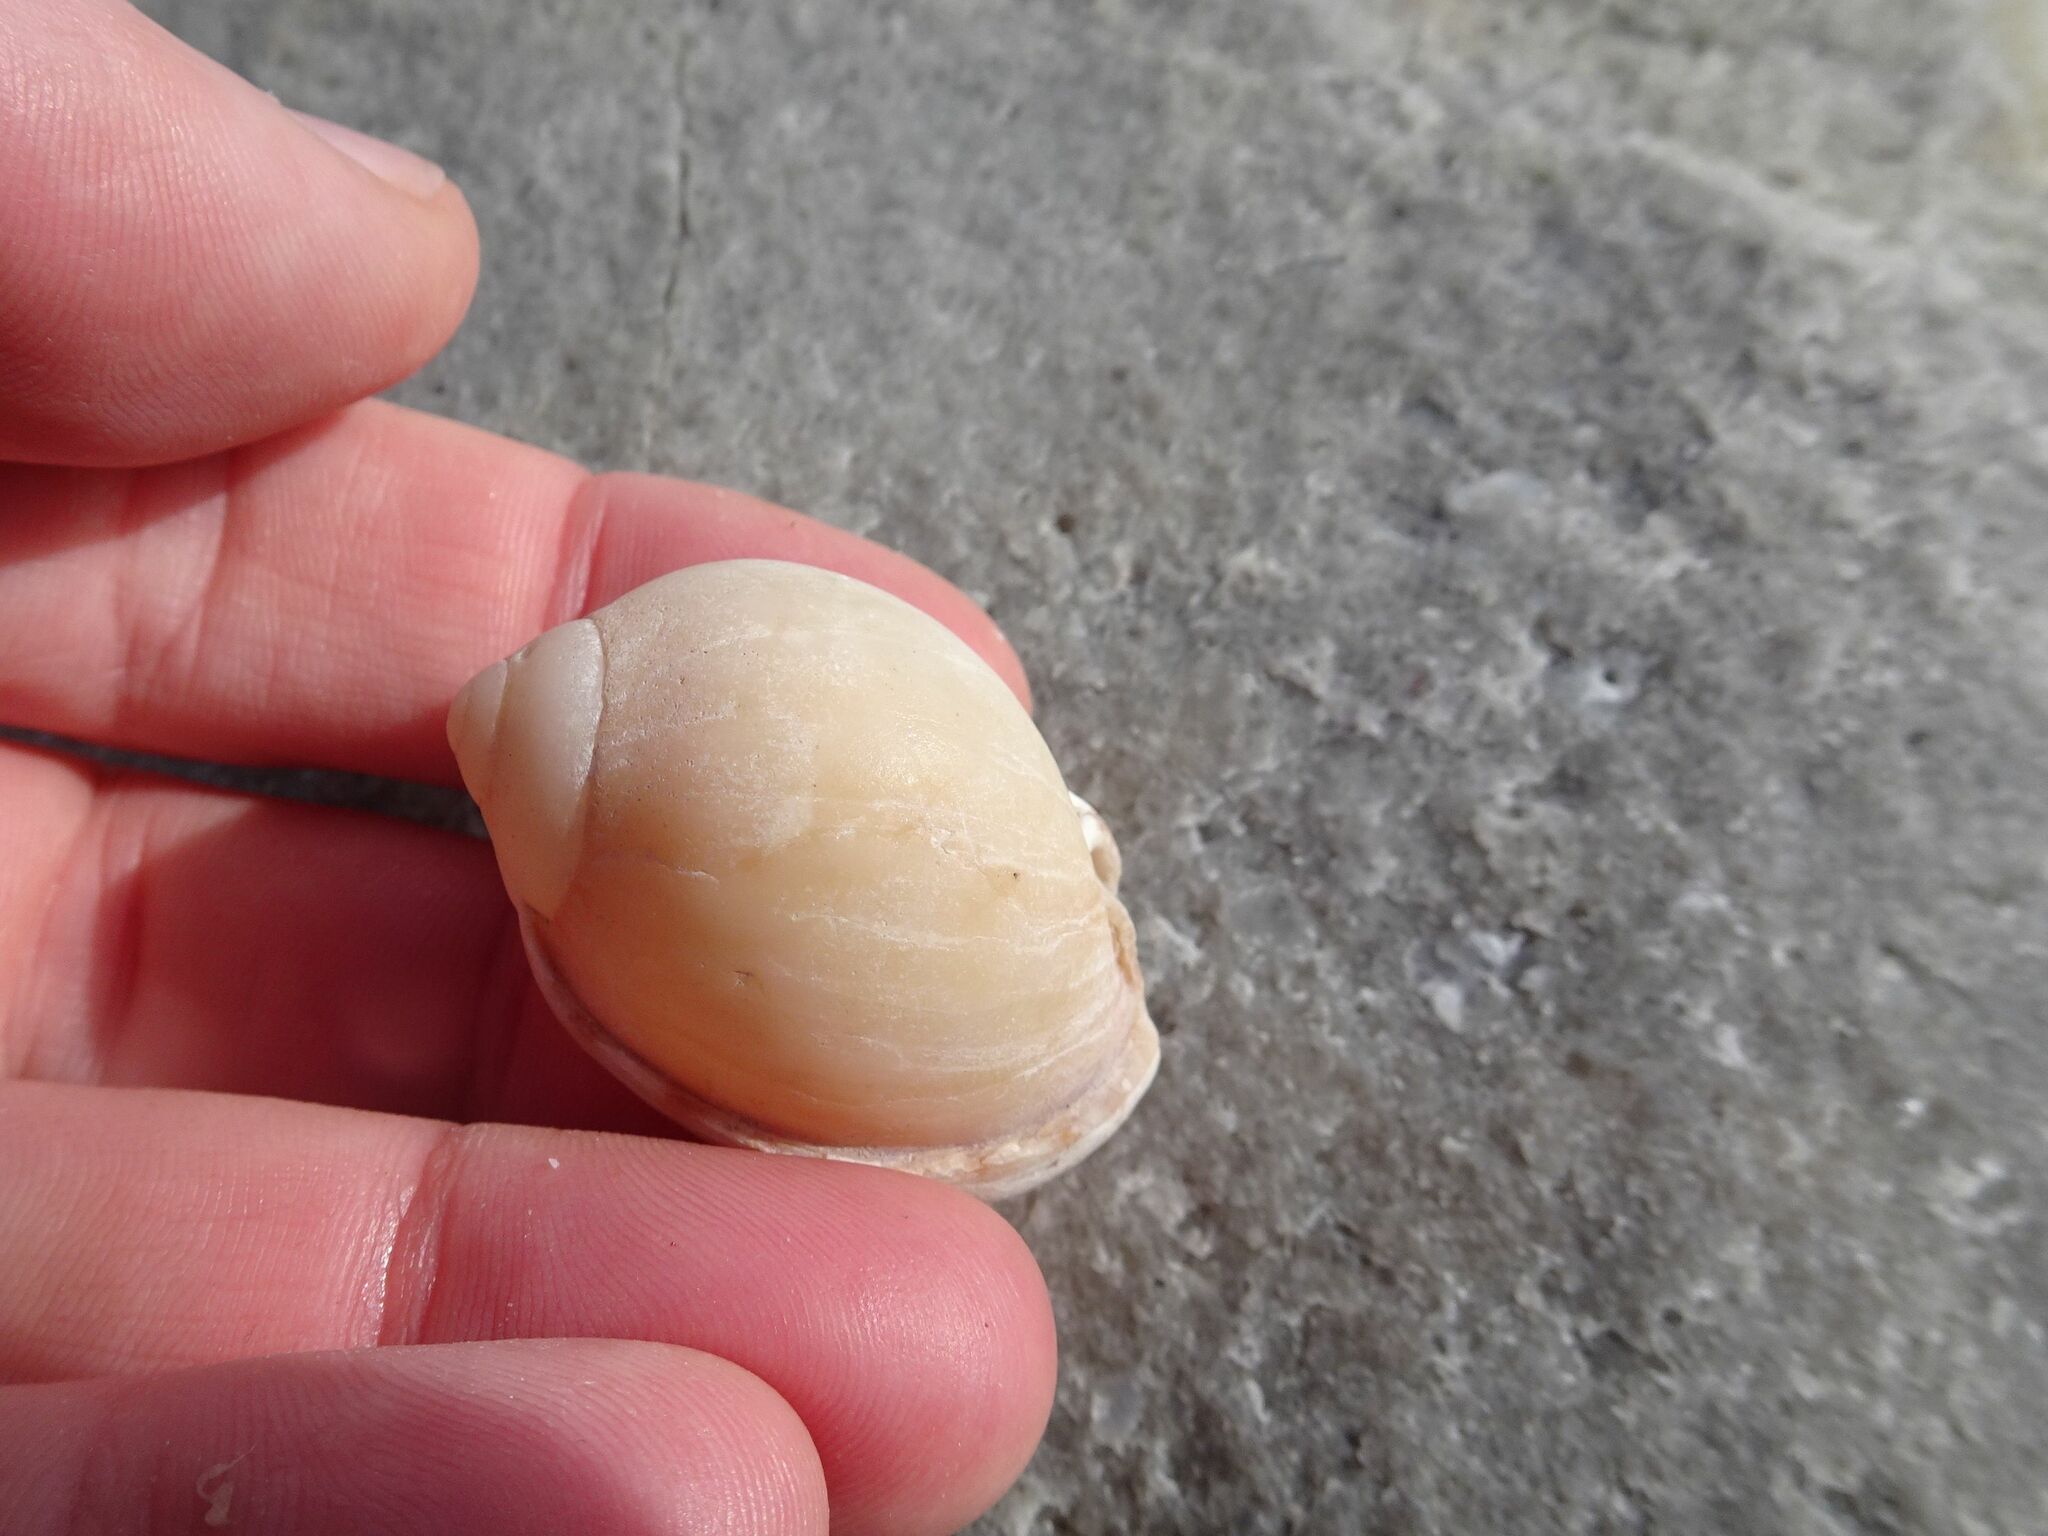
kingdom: Animalia
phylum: Mollusca
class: Gastropoda
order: Littorinimorpha
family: Cassidae
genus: Semicassis
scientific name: Semicassis zeylanica
